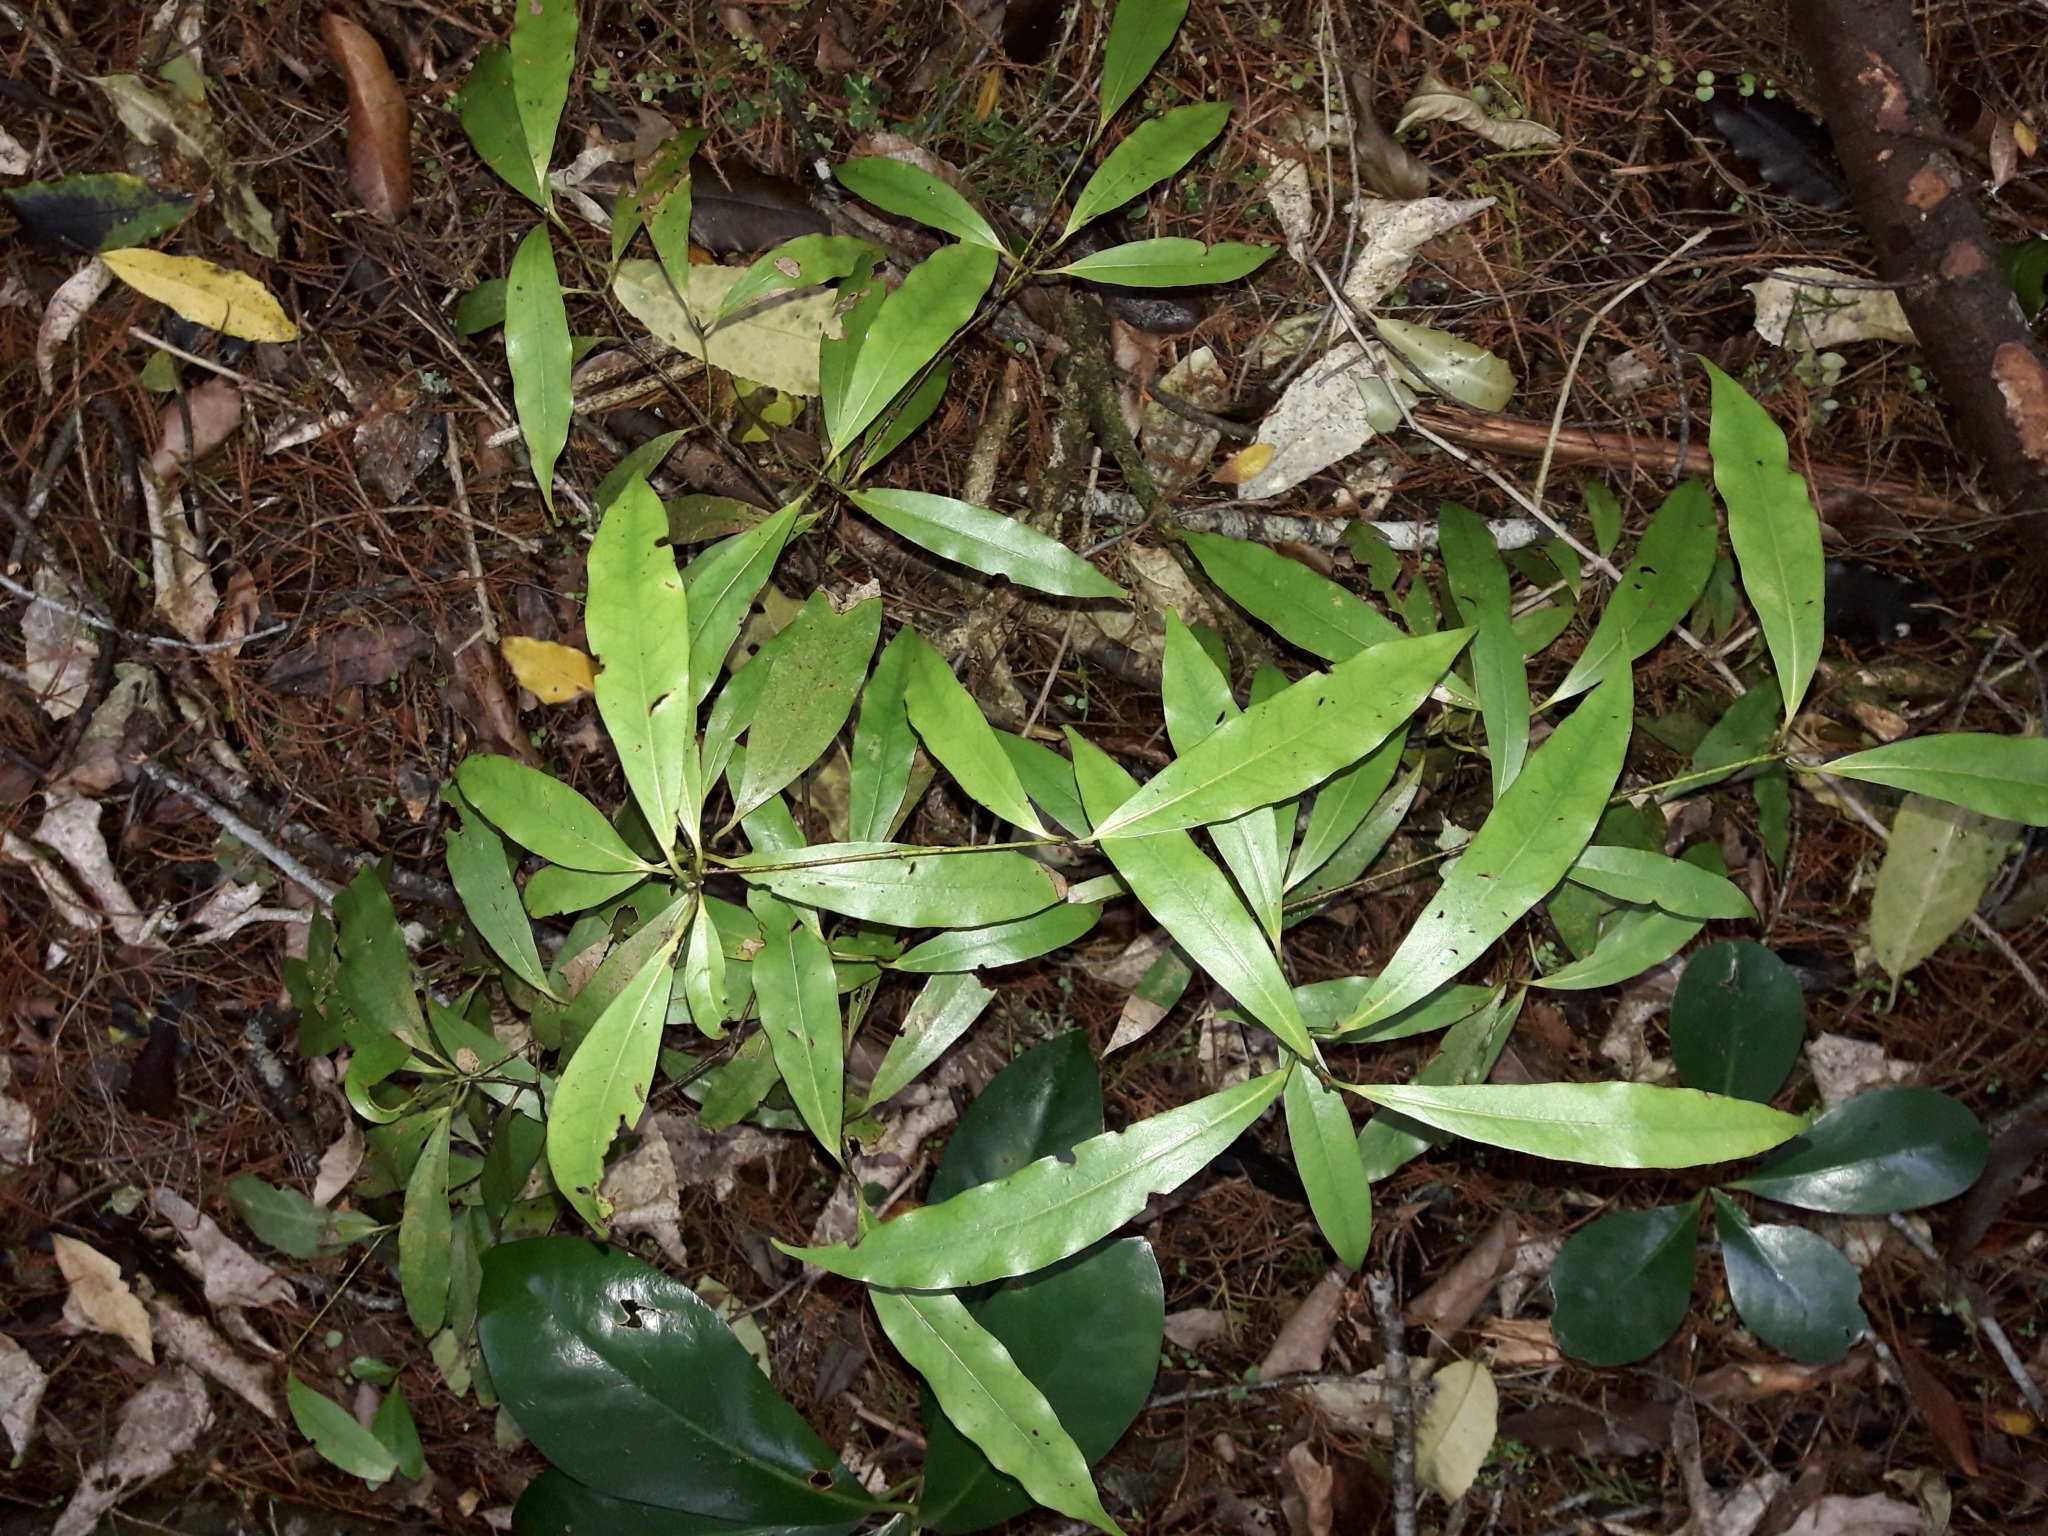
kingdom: Plantae
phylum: Tracheophyta
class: Magnoliopsida
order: Laurales
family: Lauraceae
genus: Beilschmiedia
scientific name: Beilschmiedia tawa
